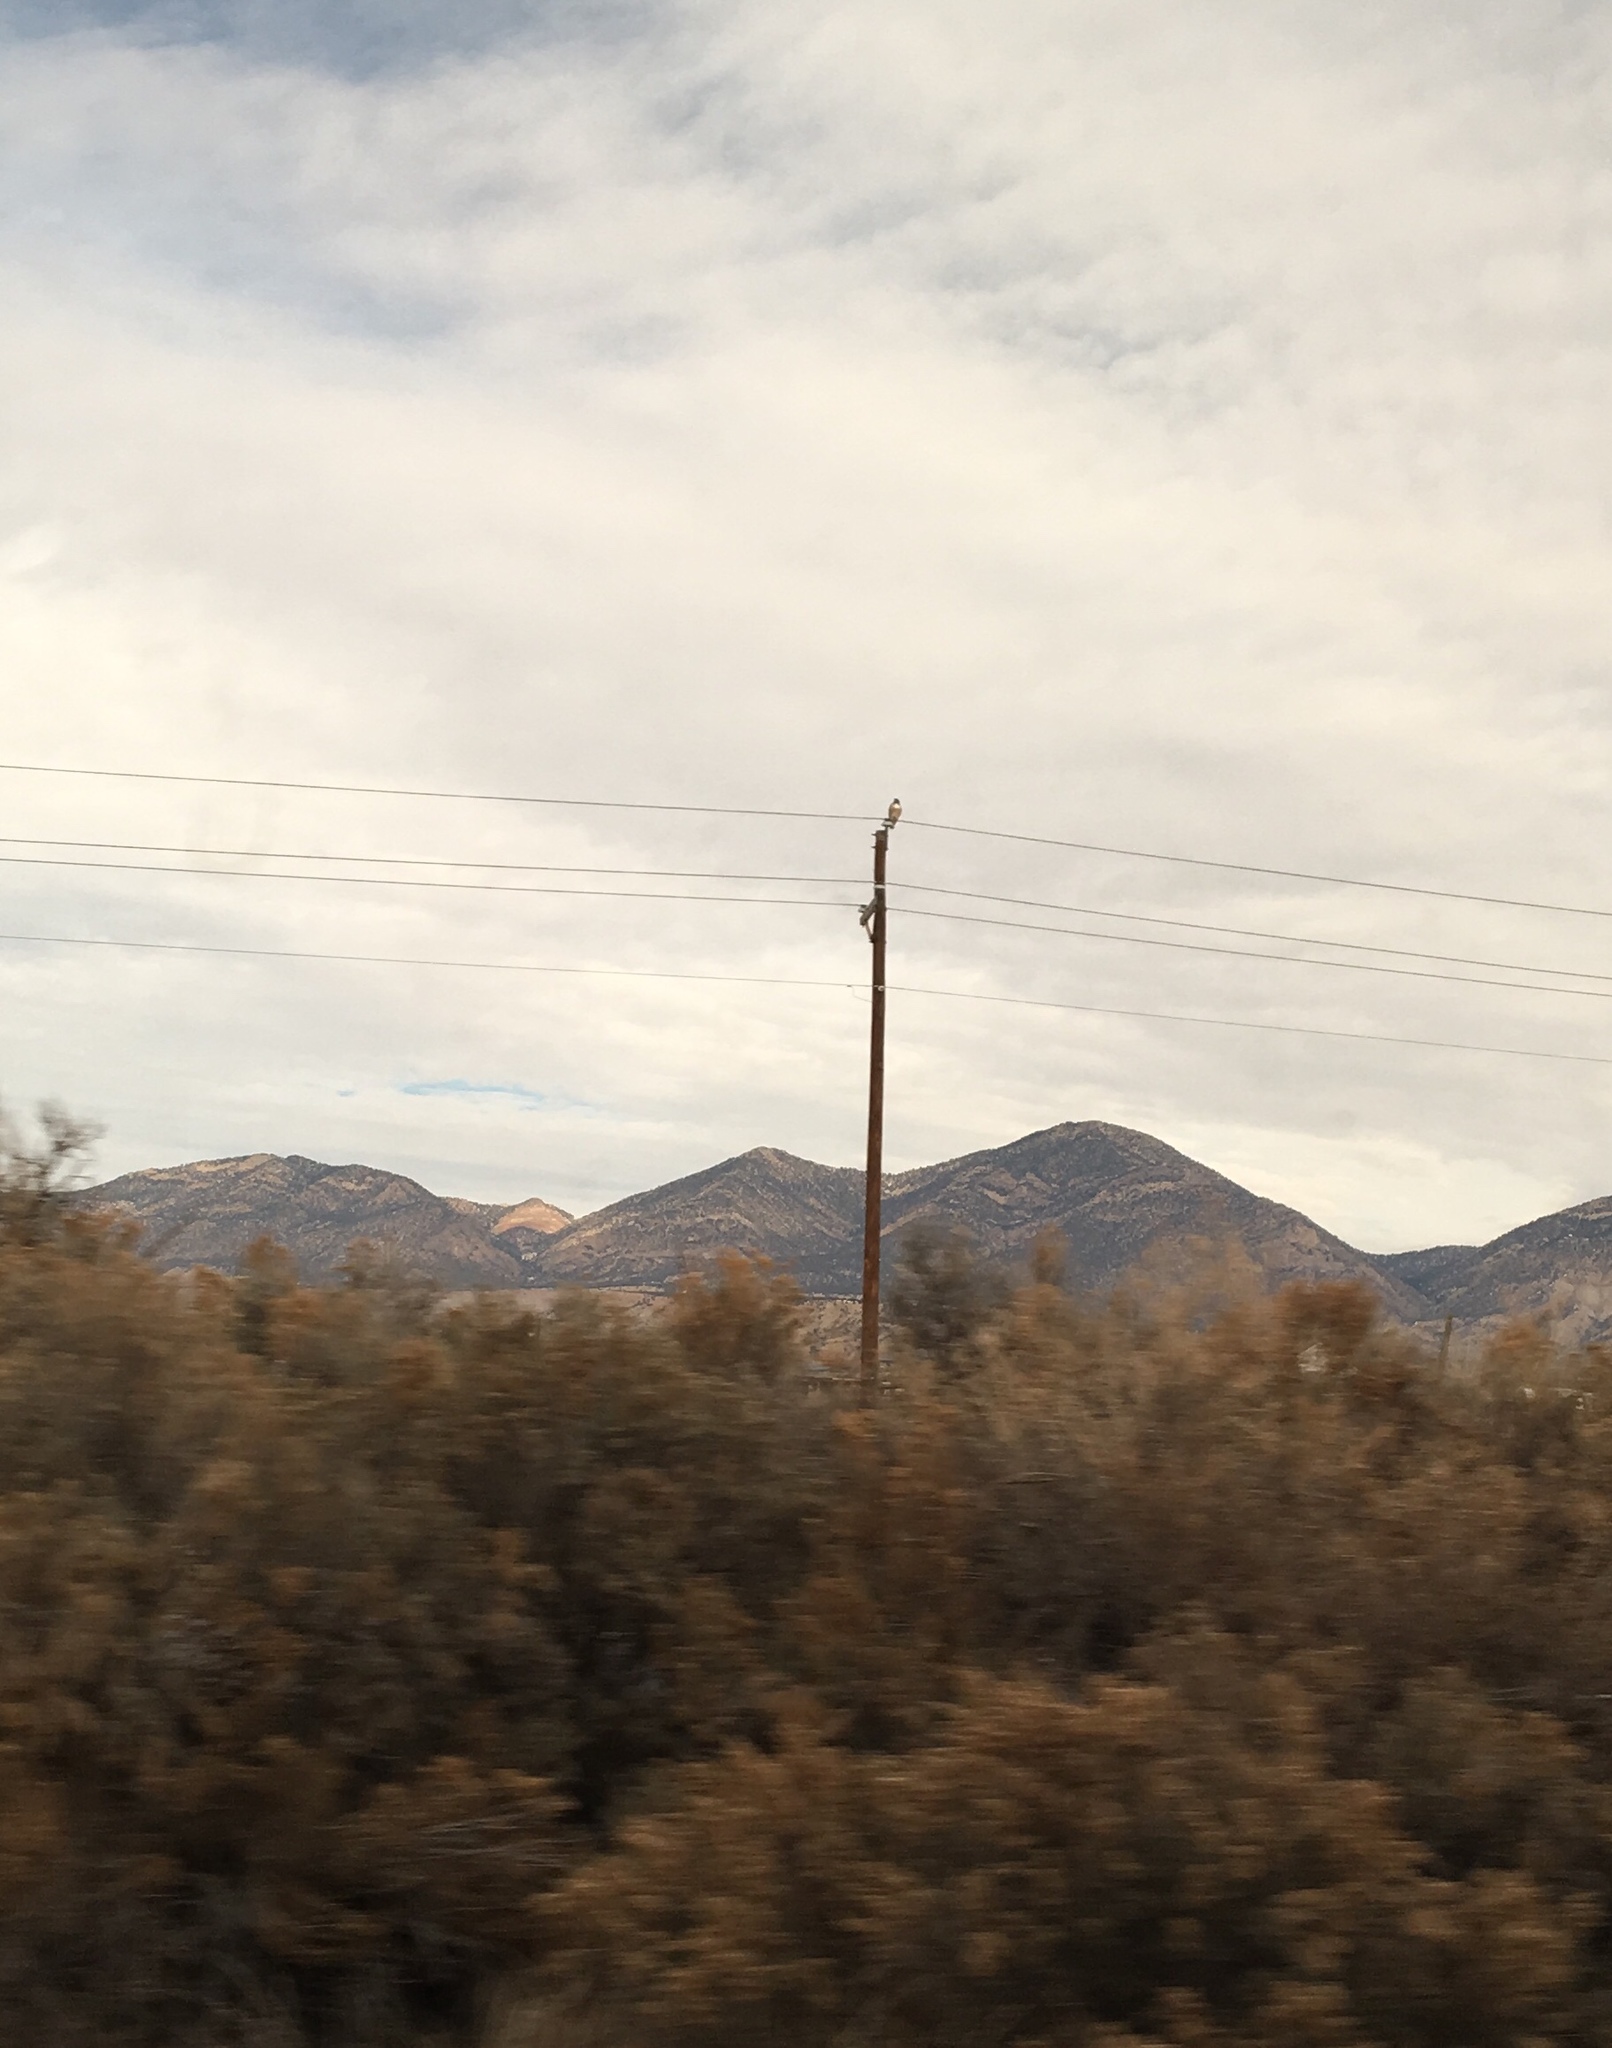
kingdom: Animalia
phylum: Chordata
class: Aves
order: Accipitriformes
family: Accipitridae
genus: Buteo
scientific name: Buteo jamaicensis
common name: Red-tailed hawk
